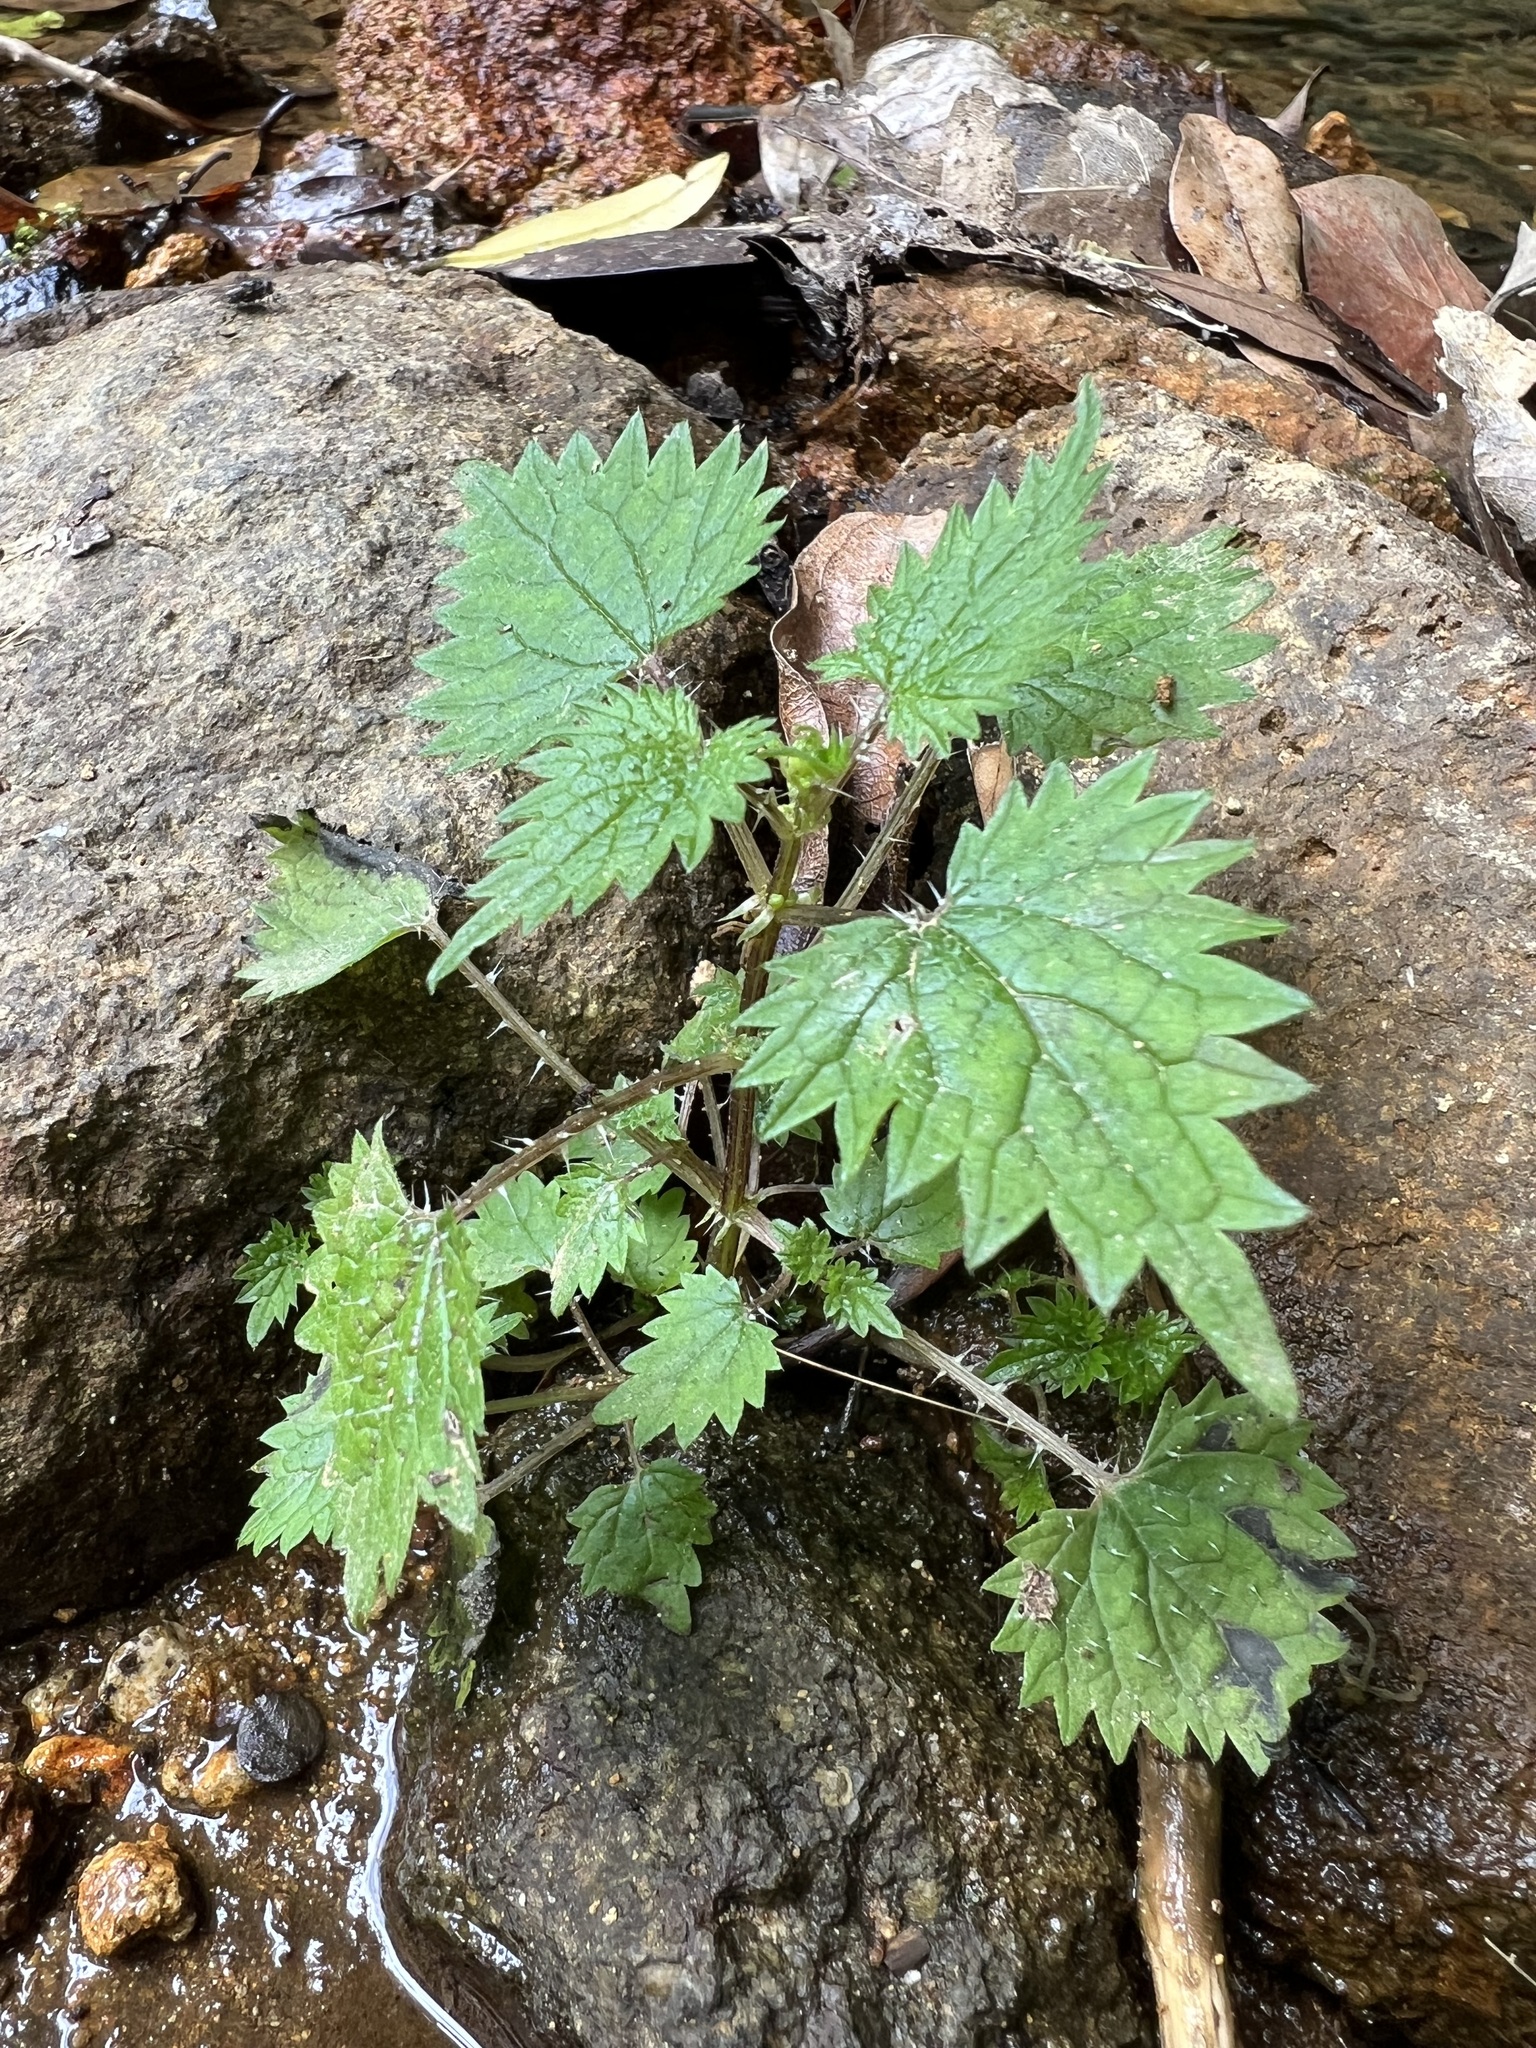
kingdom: Plantae
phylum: Tracheophyta
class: Magnoliopsida
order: Rosales
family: Urticaceae
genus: Urtica
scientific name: Urtica sykesii
